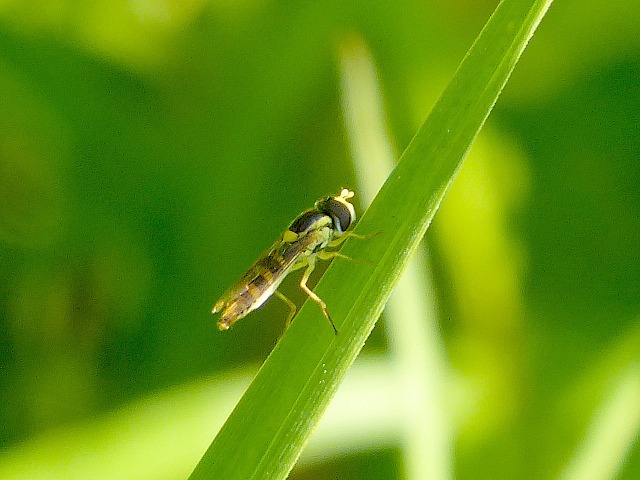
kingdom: Animalia
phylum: Arthropoda
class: Insecta
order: Diptera
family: Syrphidae
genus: Sphaerophoria
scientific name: Sphaerophoria
